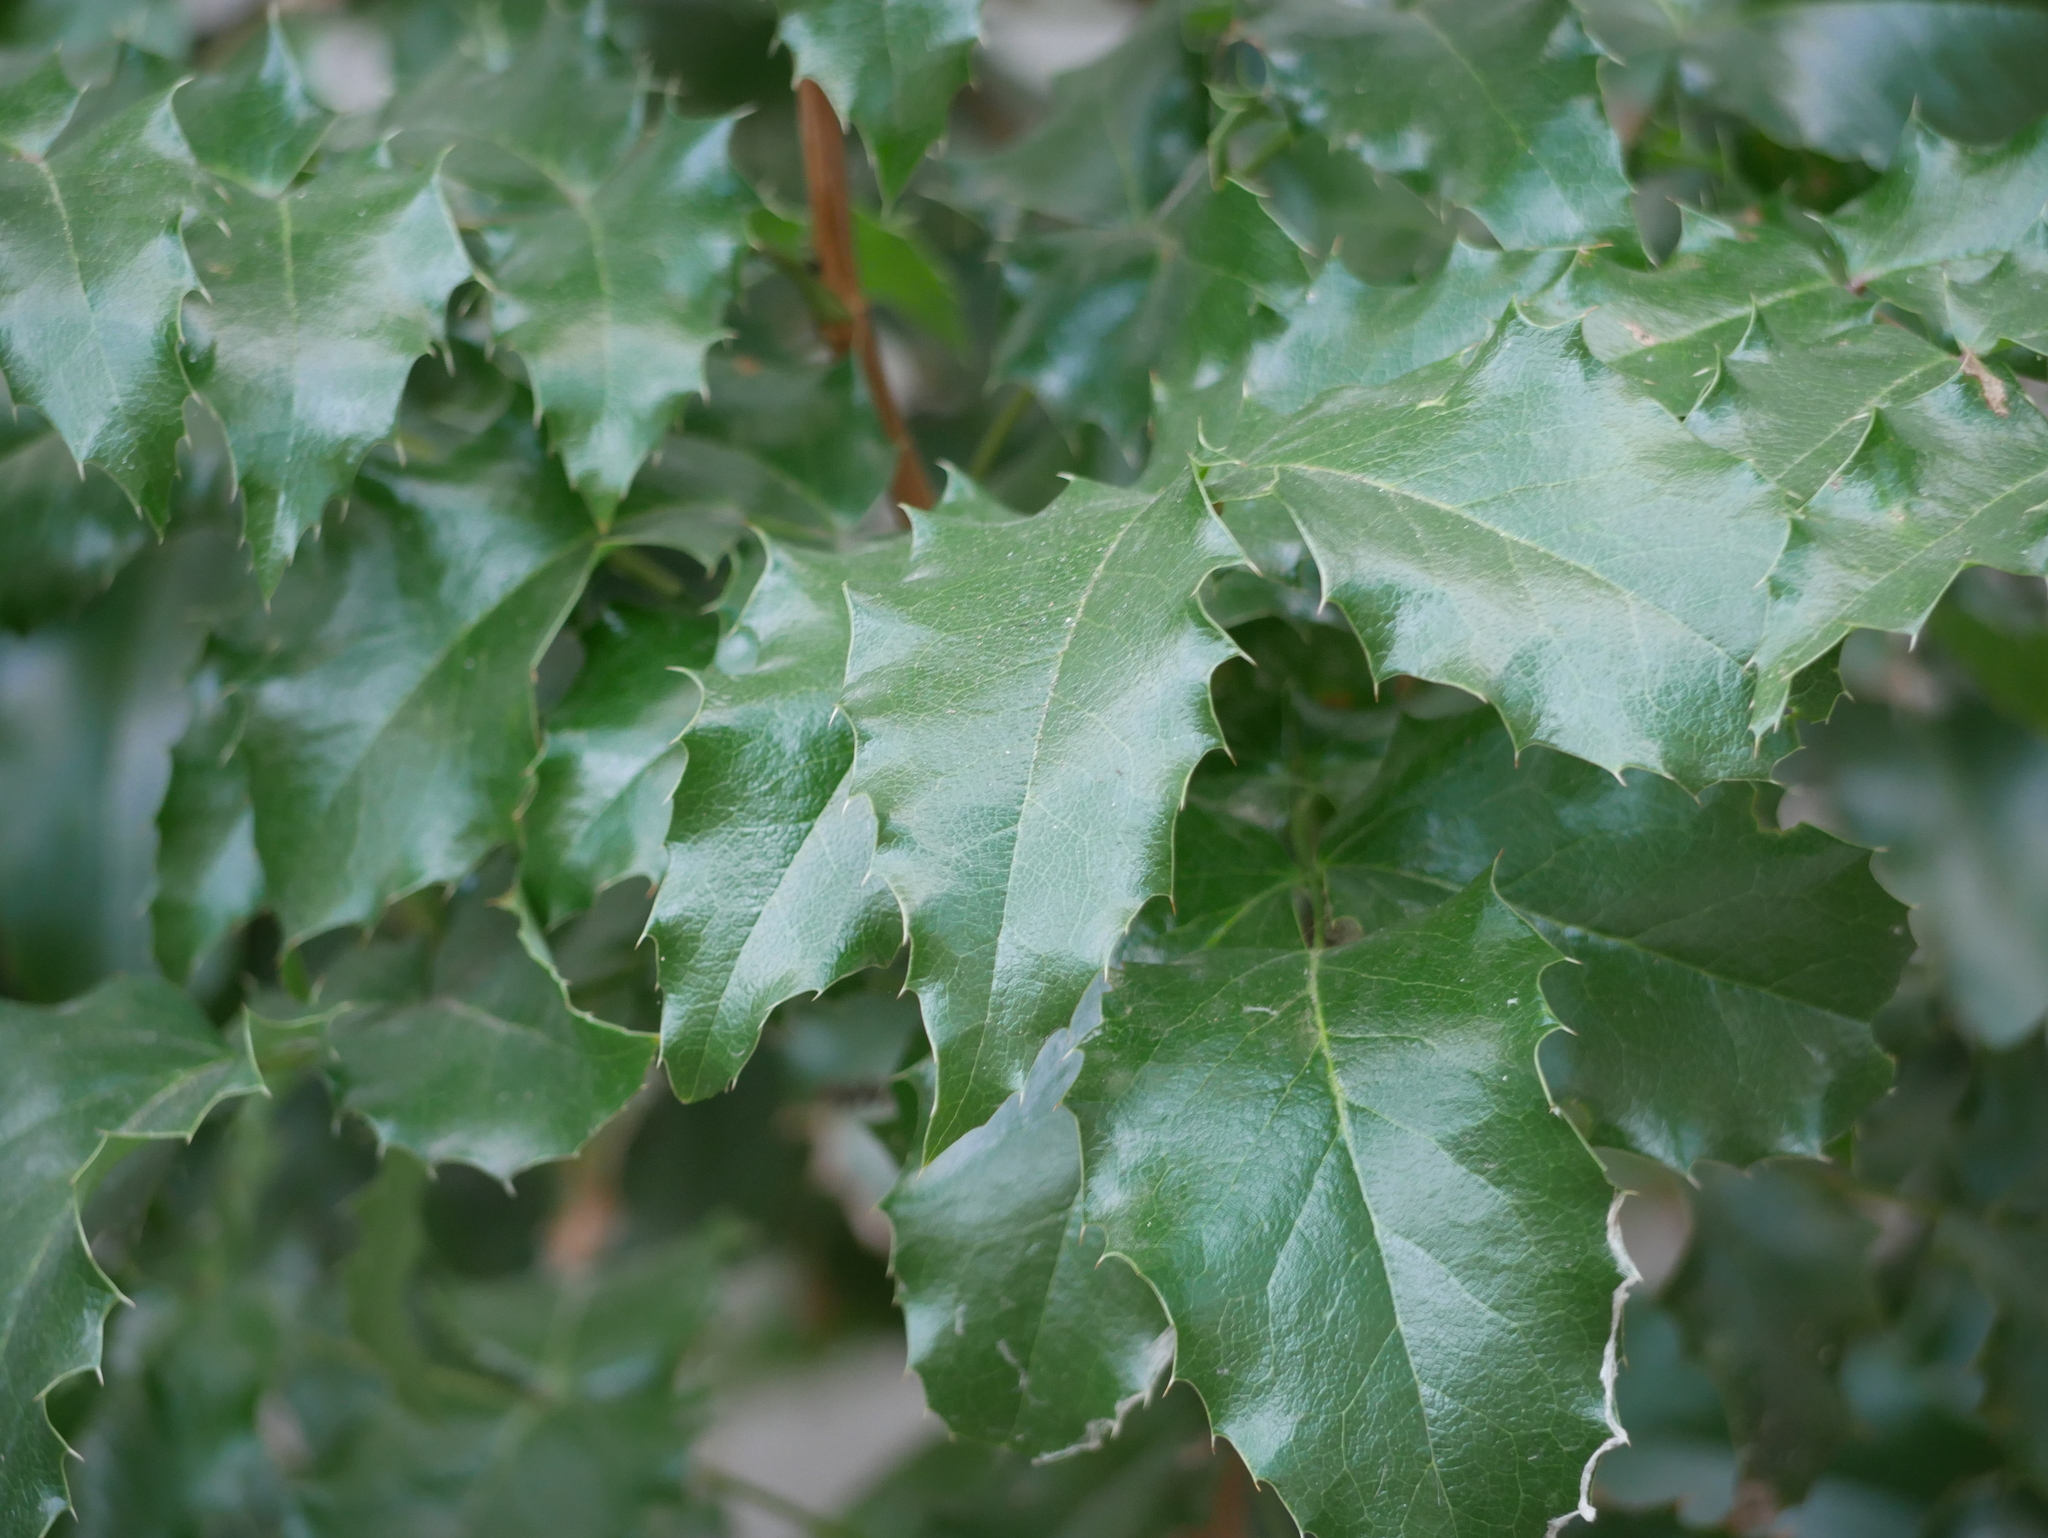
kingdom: Plantae
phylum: Tracheophyta
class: Magnoliopsida
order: Ranunculales
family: Berberidaceae
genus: Mahonia
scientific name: Mahonia aquifolium
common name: Oregon-grape
